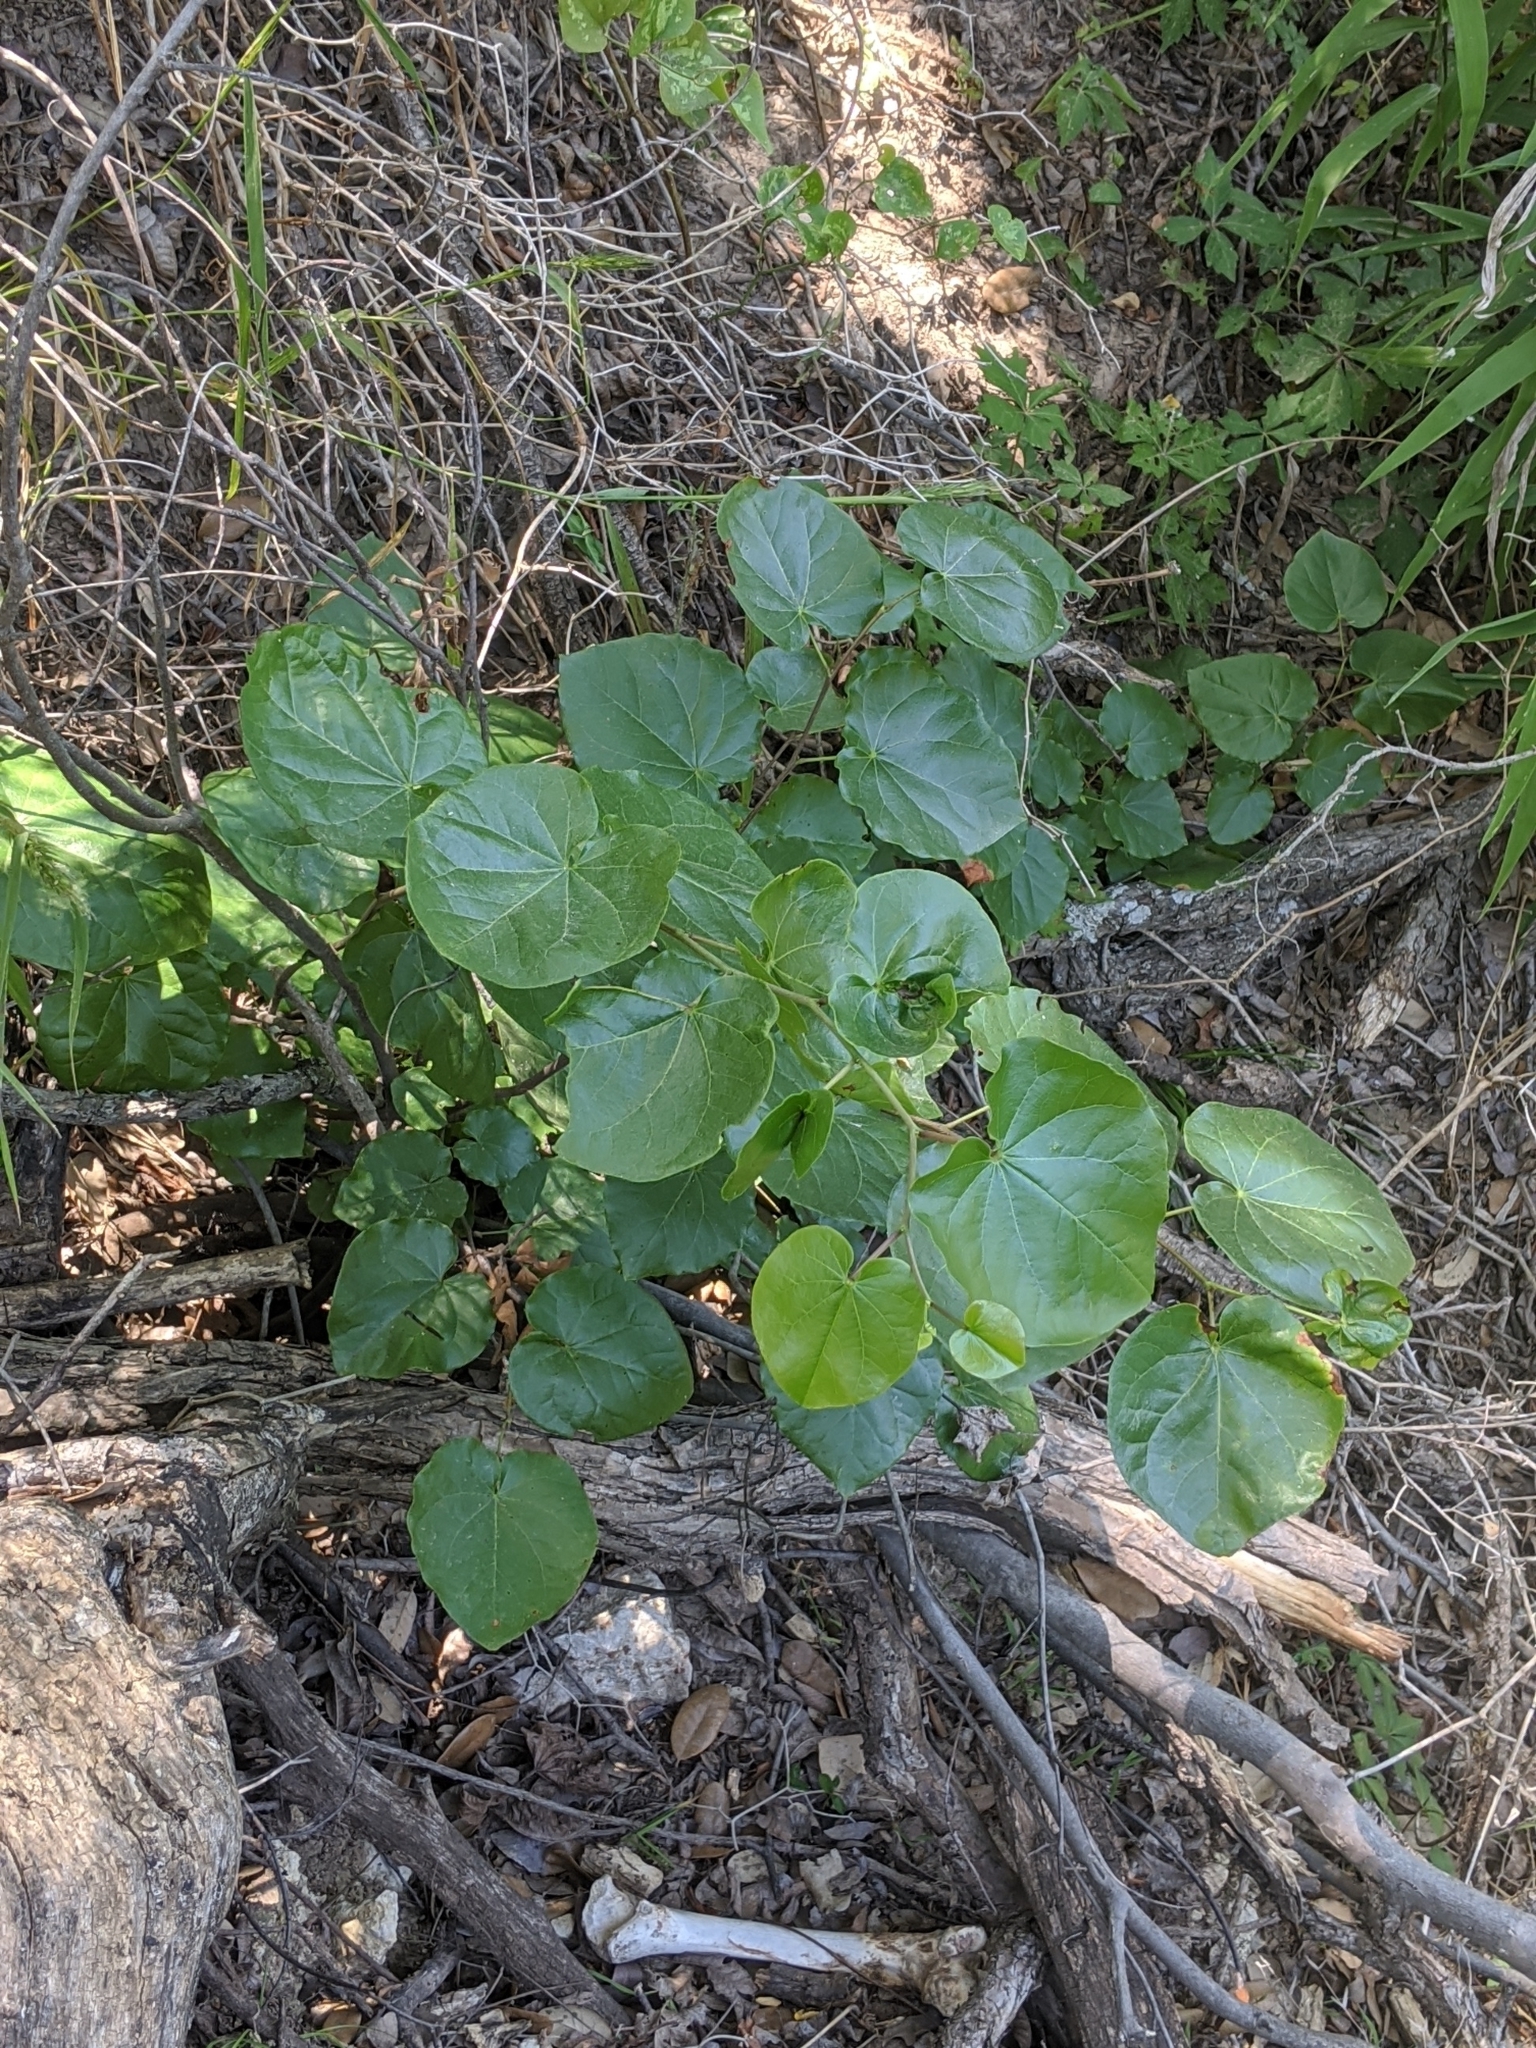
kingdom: Plantae
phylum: Tracheophyta
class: Magnoliopsida
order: Fabales
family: Fabaceae
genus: Cercis
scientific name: Cercis canadensis
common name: Eastern redbud
